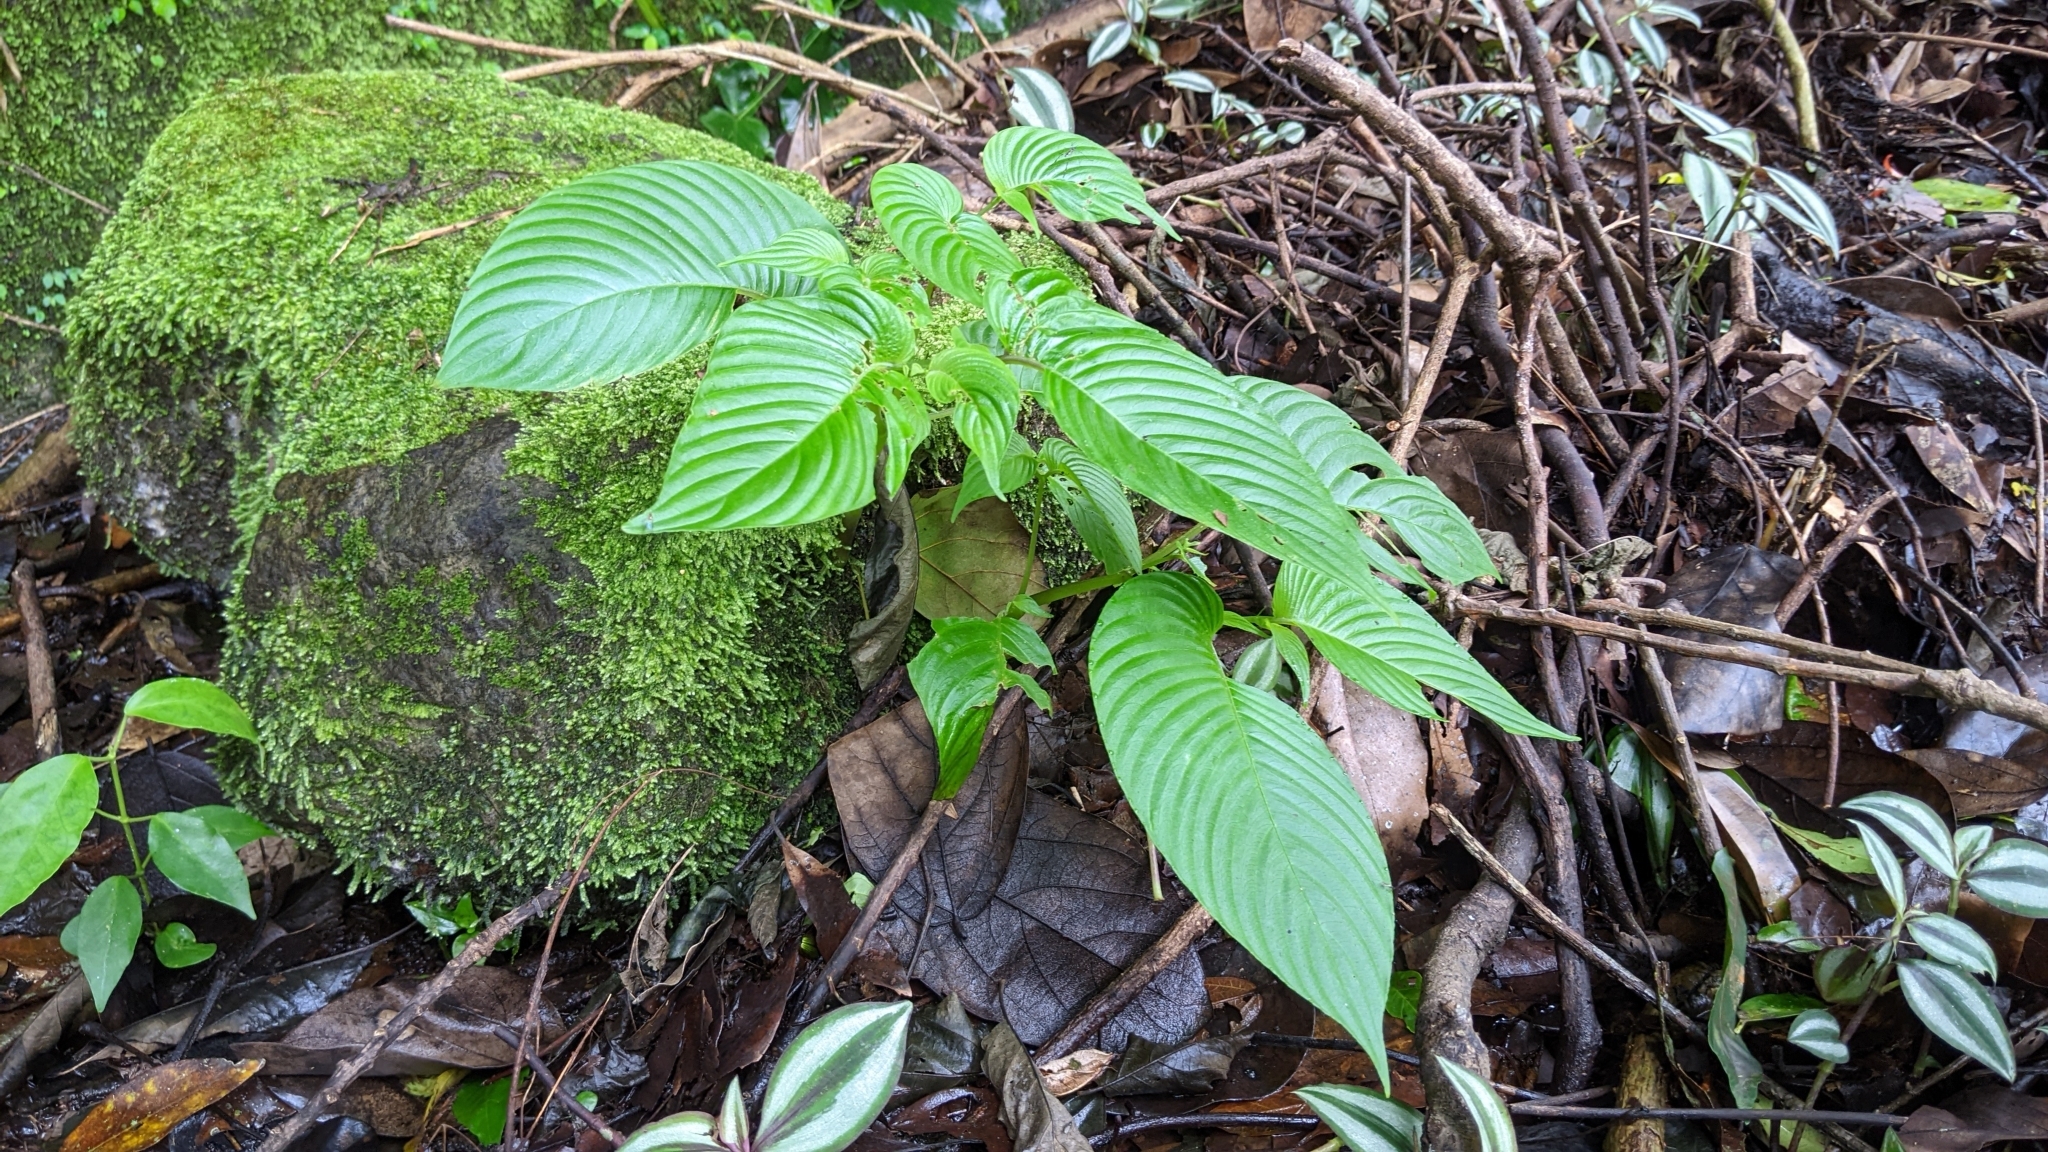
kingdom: Plantae
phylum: Tracheophyta
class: Magnoliopsida
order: Lamiales
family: Gesneriaceae
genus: Rhynchoglossum
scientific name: Rhynchoglossum obliquum
